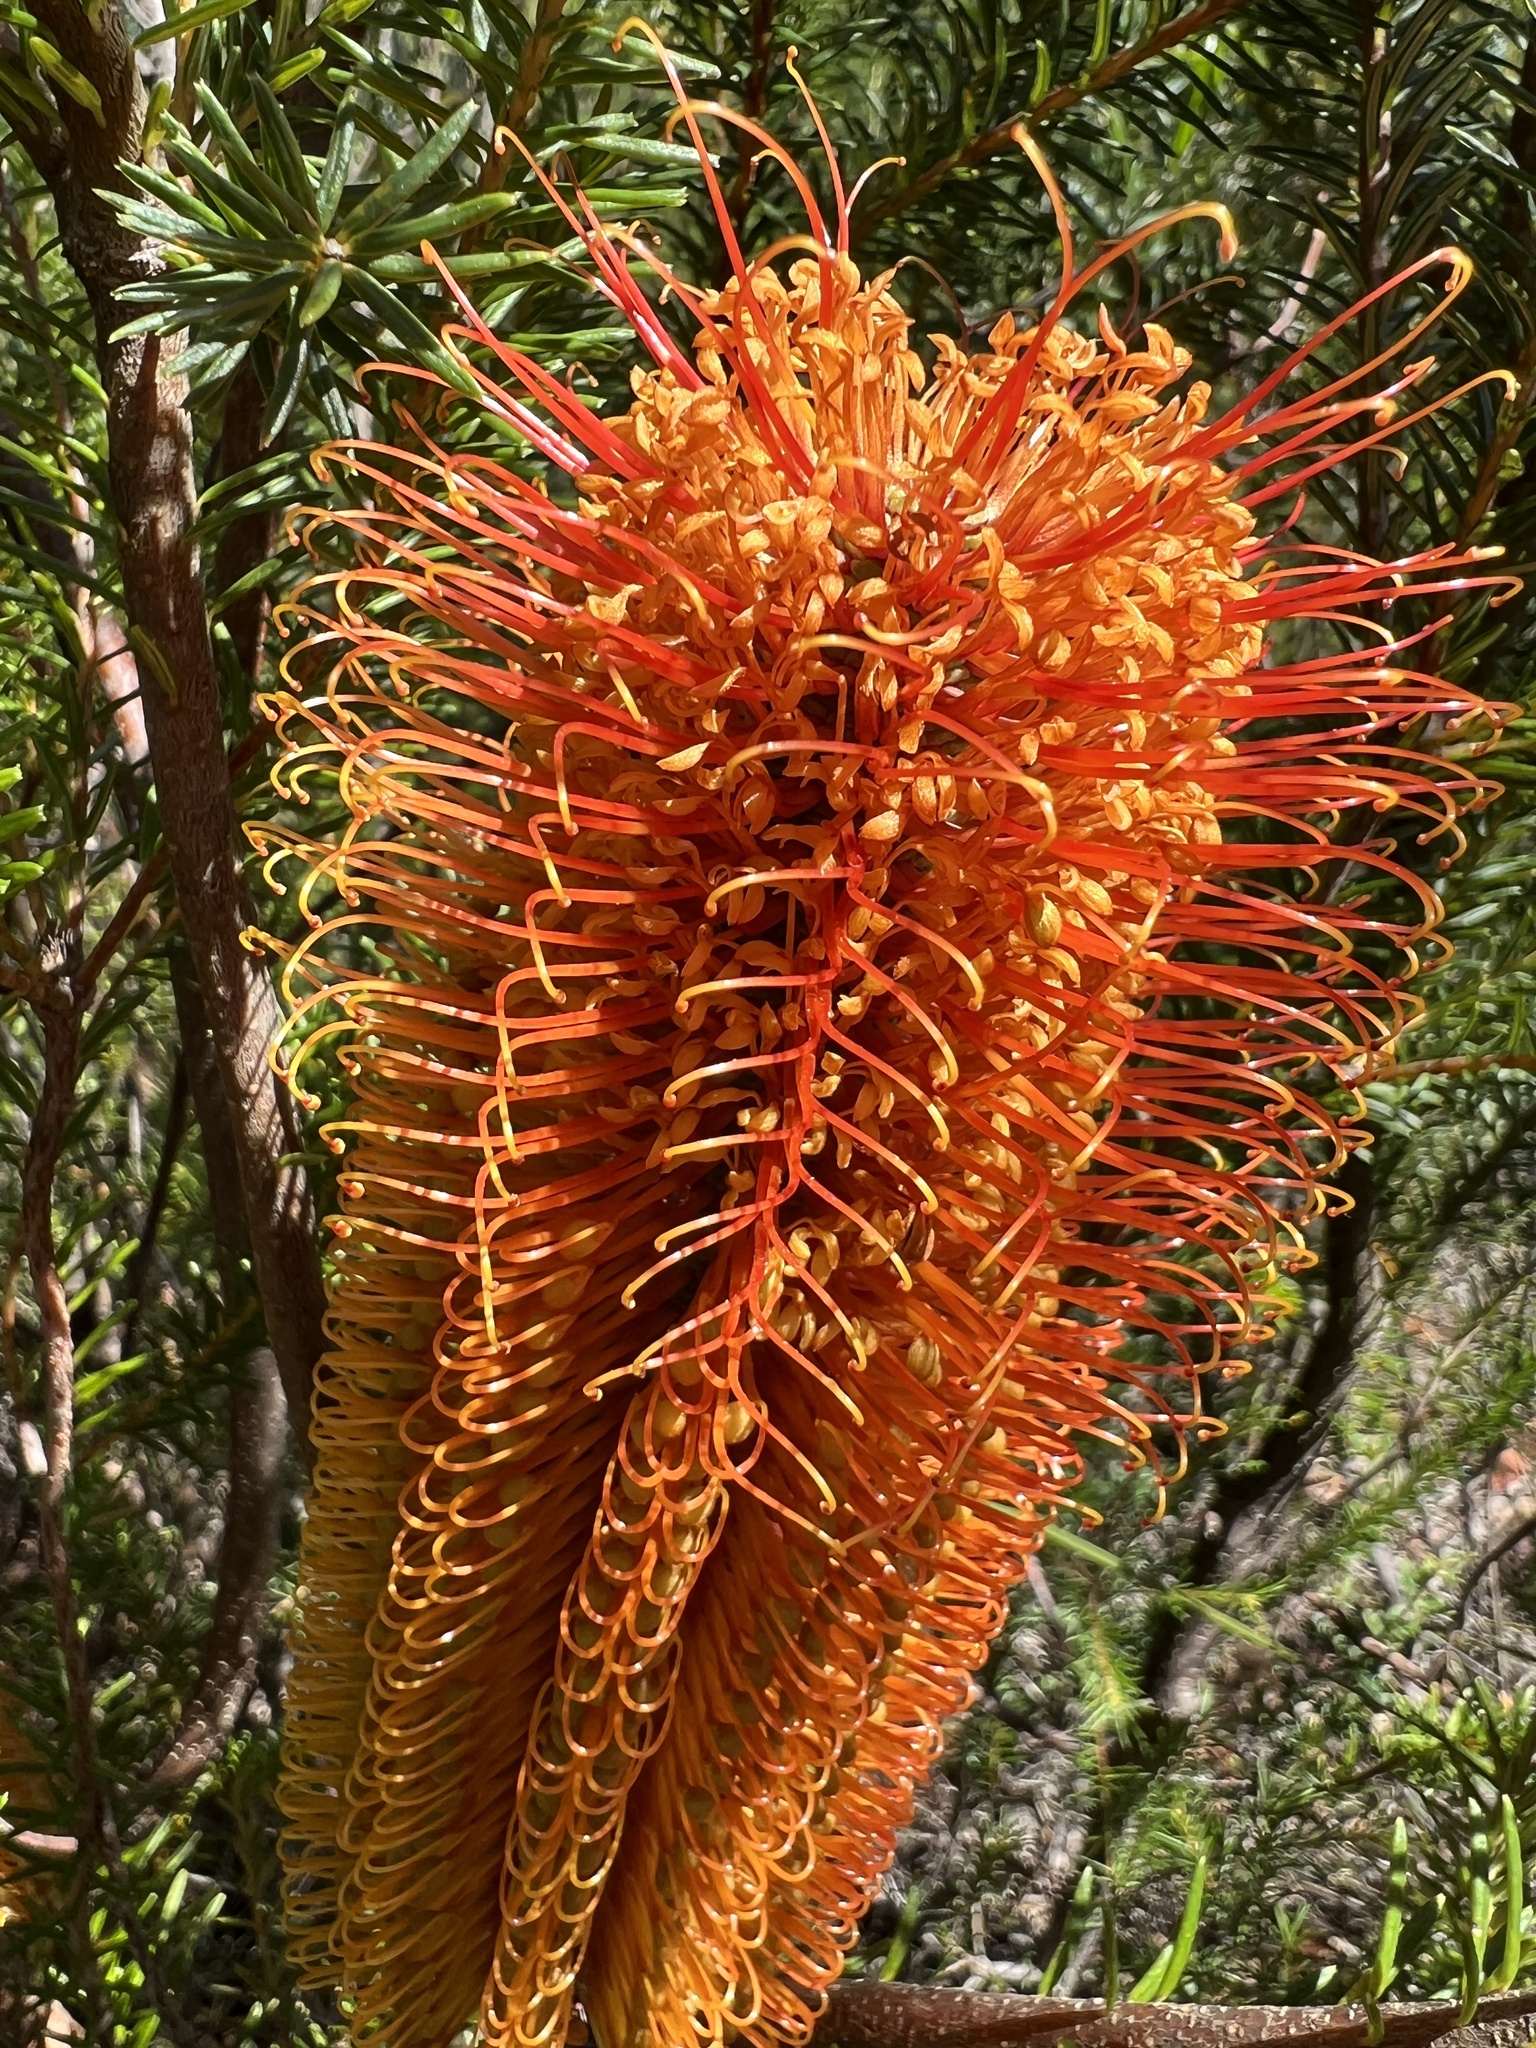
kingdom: Plantae
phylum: Tracheophyta
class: Magnoliopsida
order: Proteales
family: Proteaceae
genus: Banksia
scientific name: Banksia ericifolia
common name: Heath-leaf banksia
